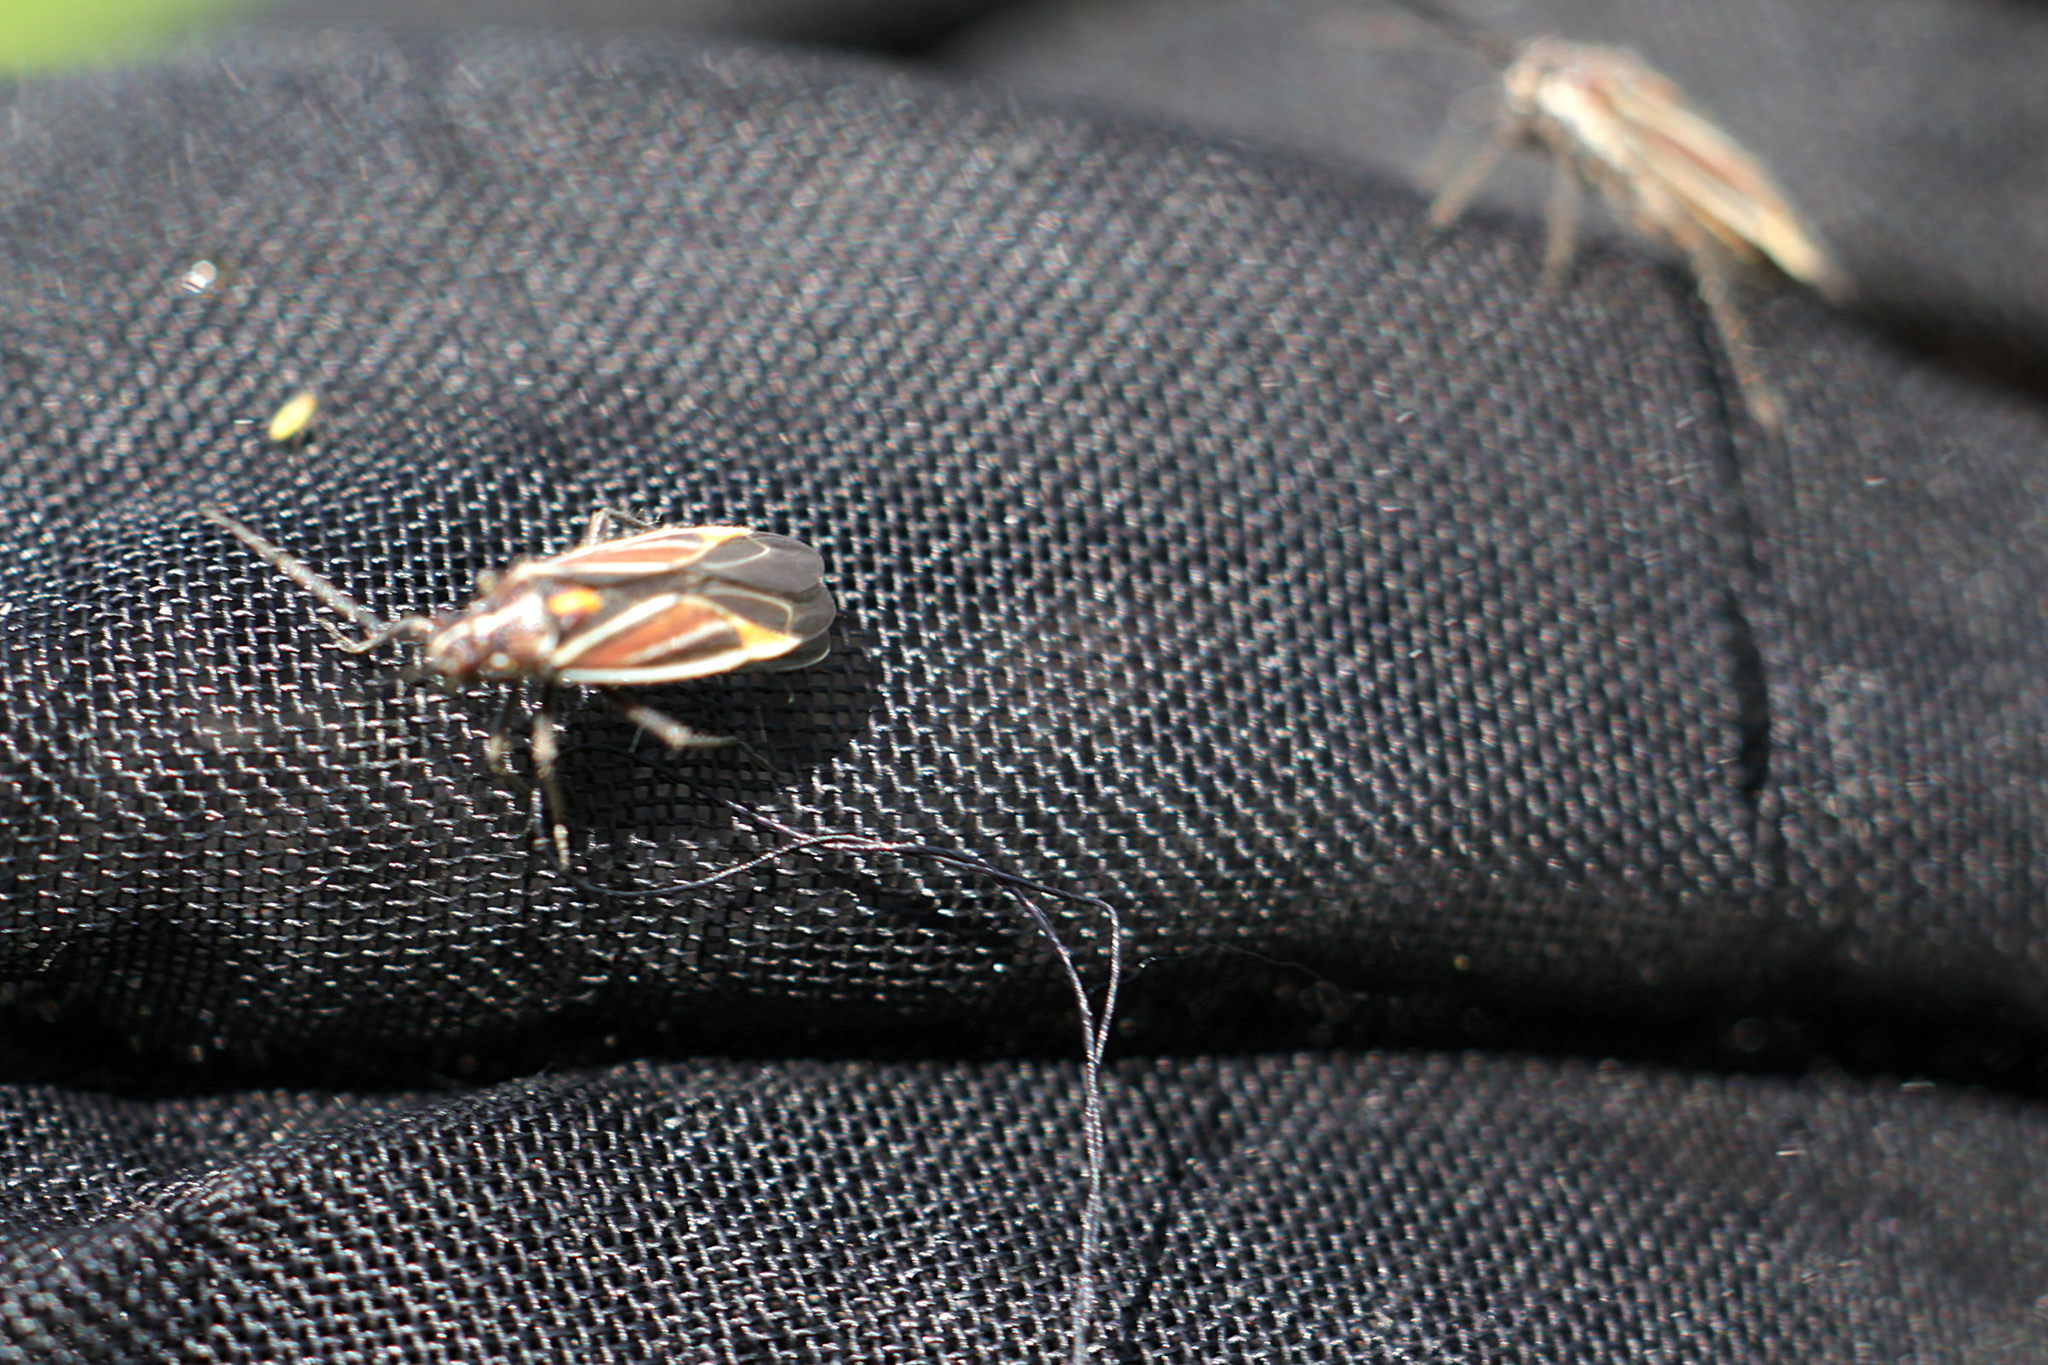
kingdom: Animalia
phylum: Arthropoda
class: Insecta
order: Hemiptera
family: Miridae
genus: Horistus
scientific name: Horistus orientalis
